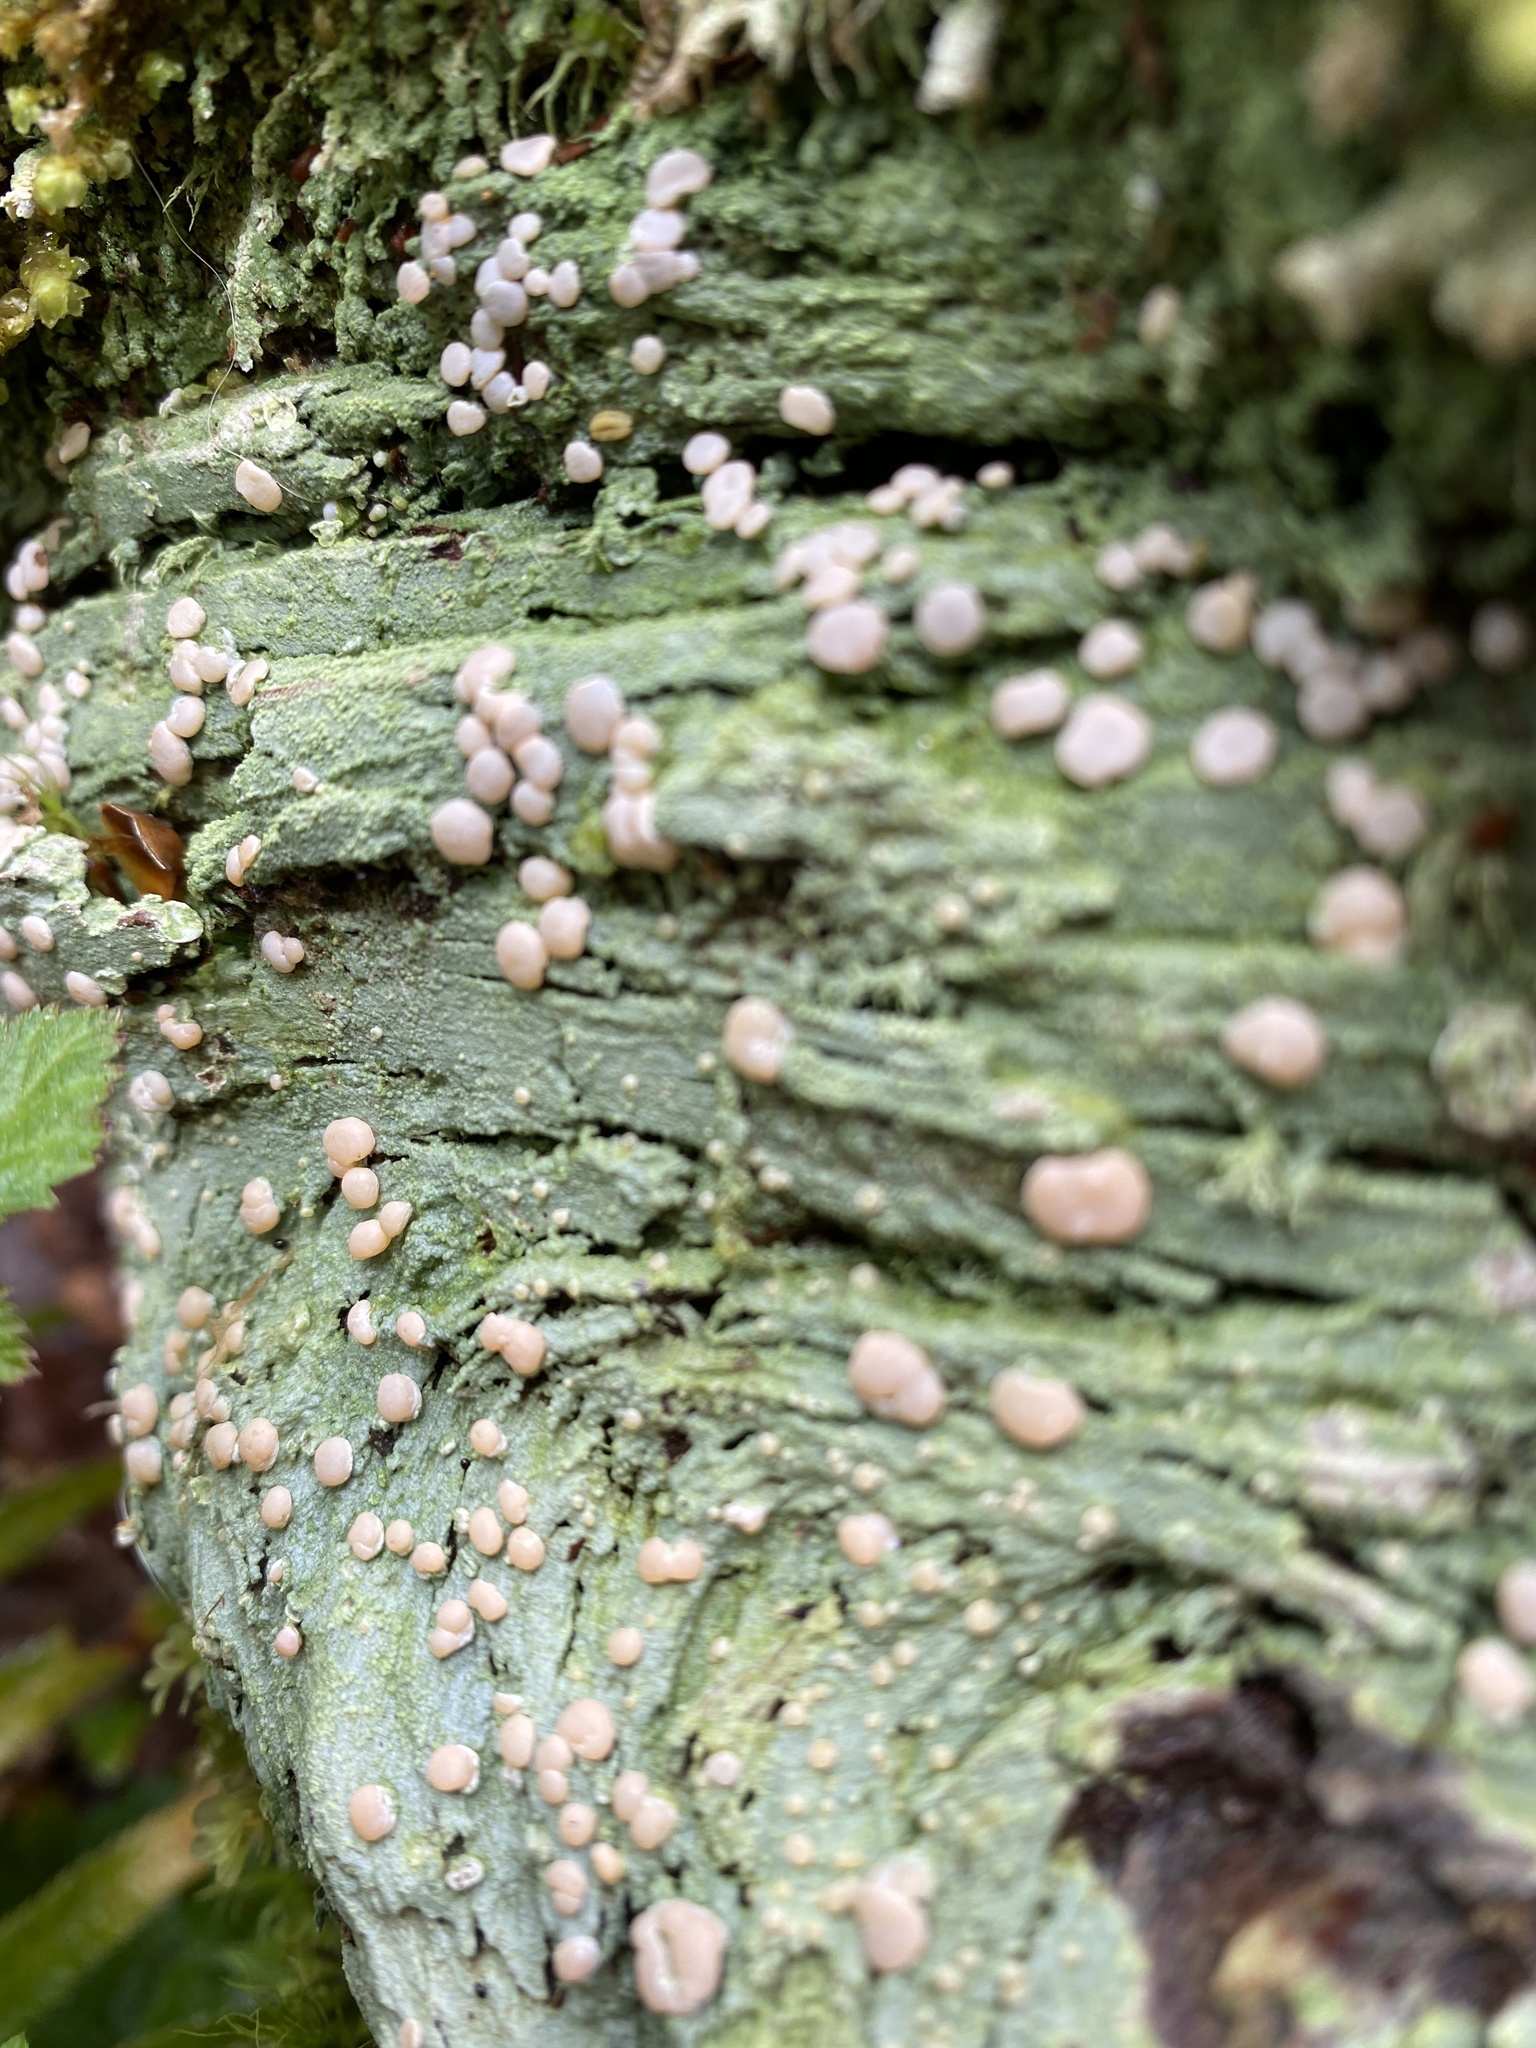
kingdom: Fungi
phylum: Ascomycota
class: Lecanoromycetes
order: Pertusariales
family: Icmadophilaceae
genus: Icmadophila
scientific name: Icmadophila ericetorum
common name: Candy lichen
